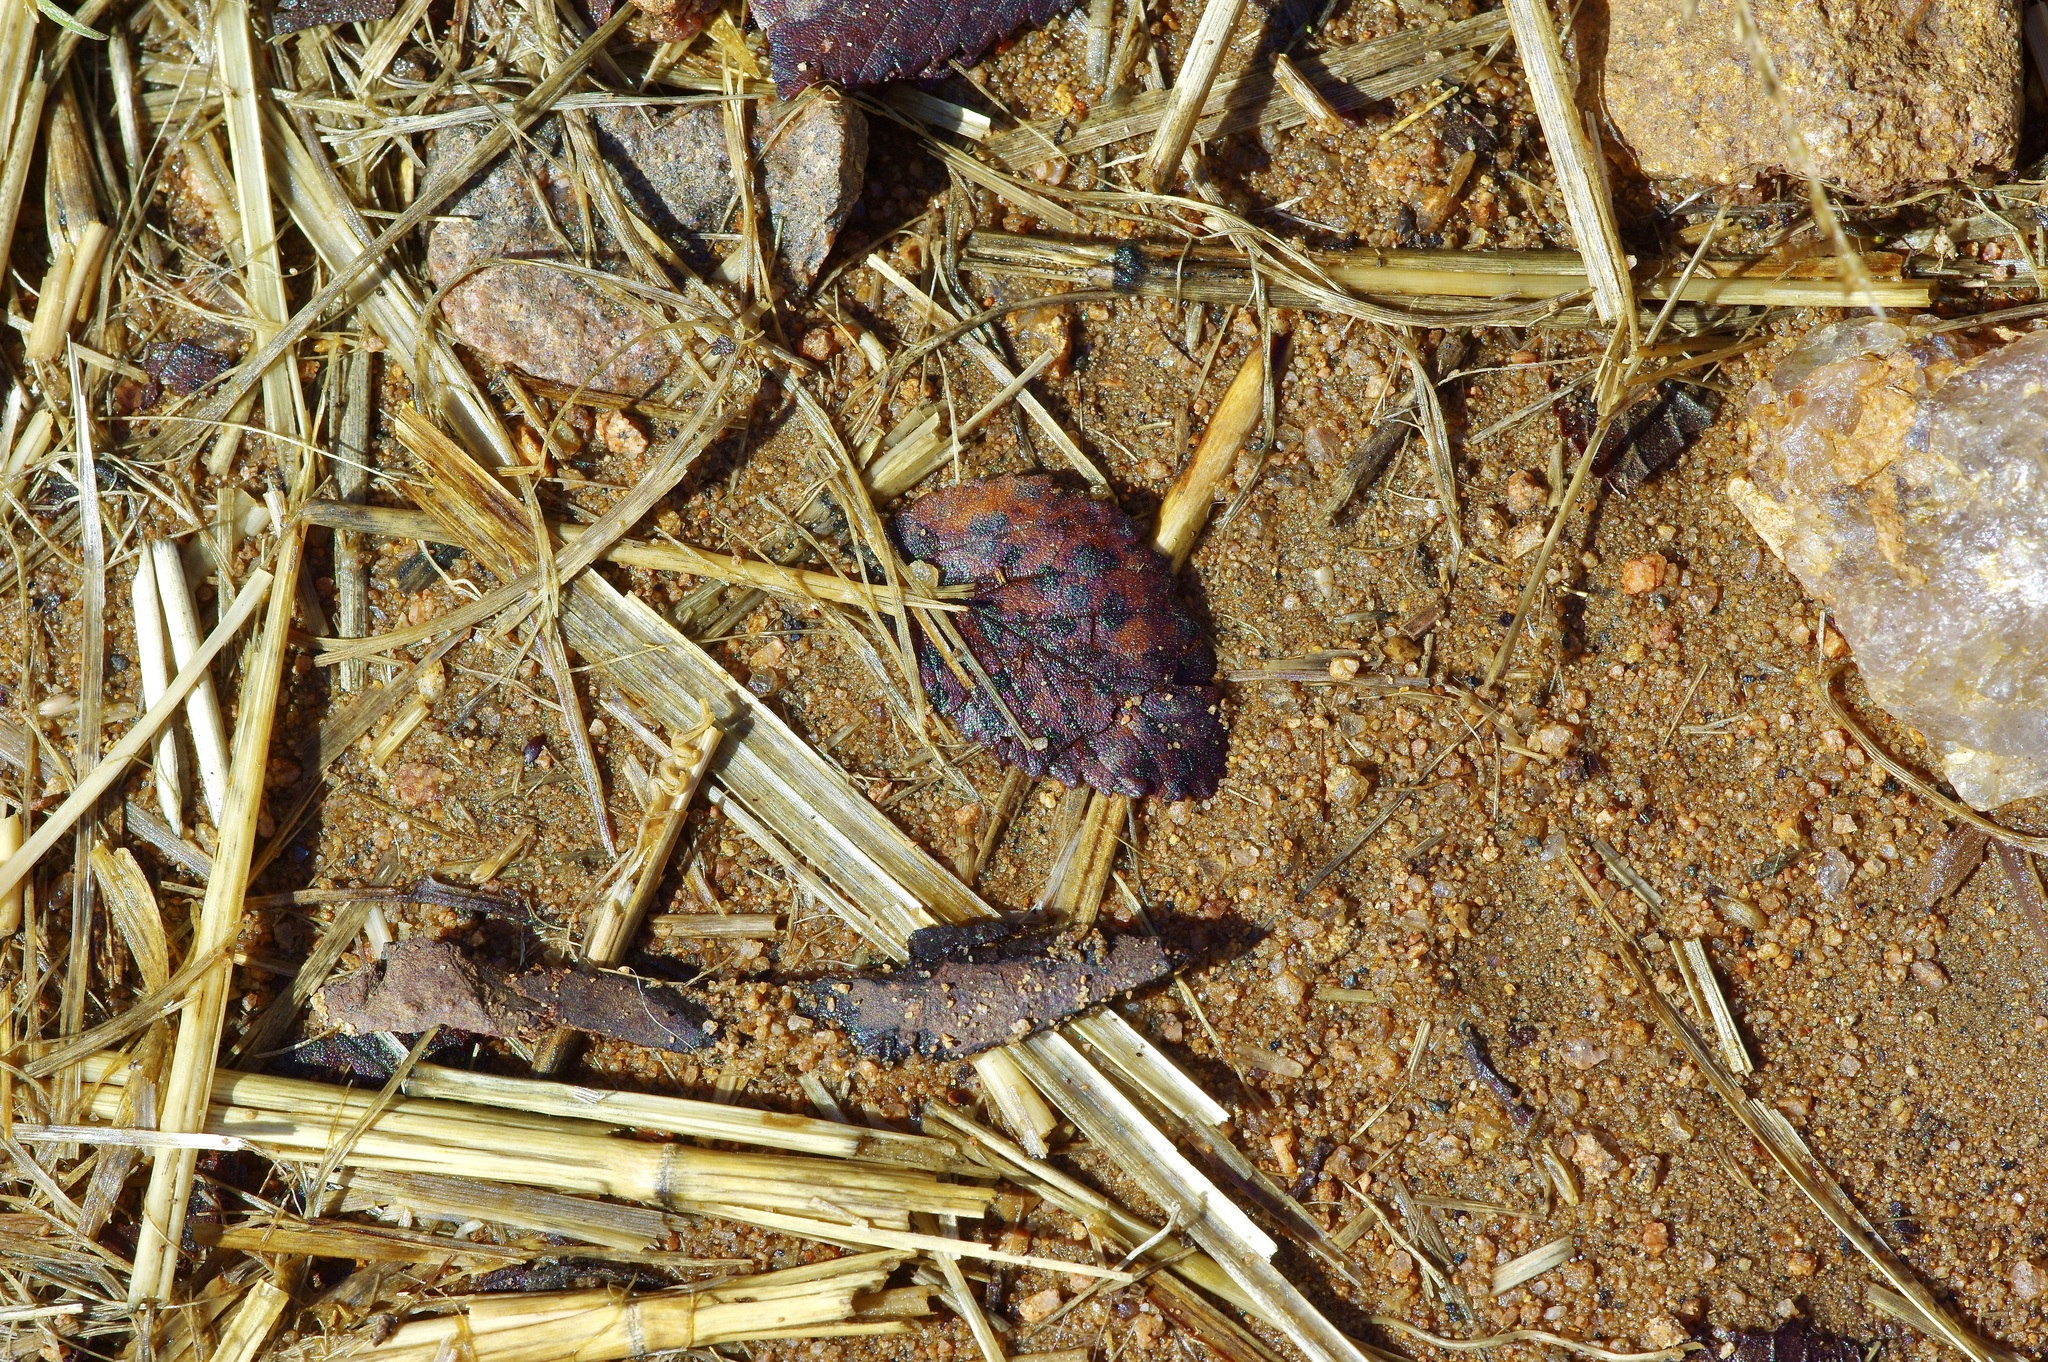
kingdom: Plantae
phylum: Tracheophyta
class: Magnoliopsida
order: Rosales
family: Ulmaceae
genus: Ulmus
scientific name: Ulmus crassifolia
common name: Basket elm
